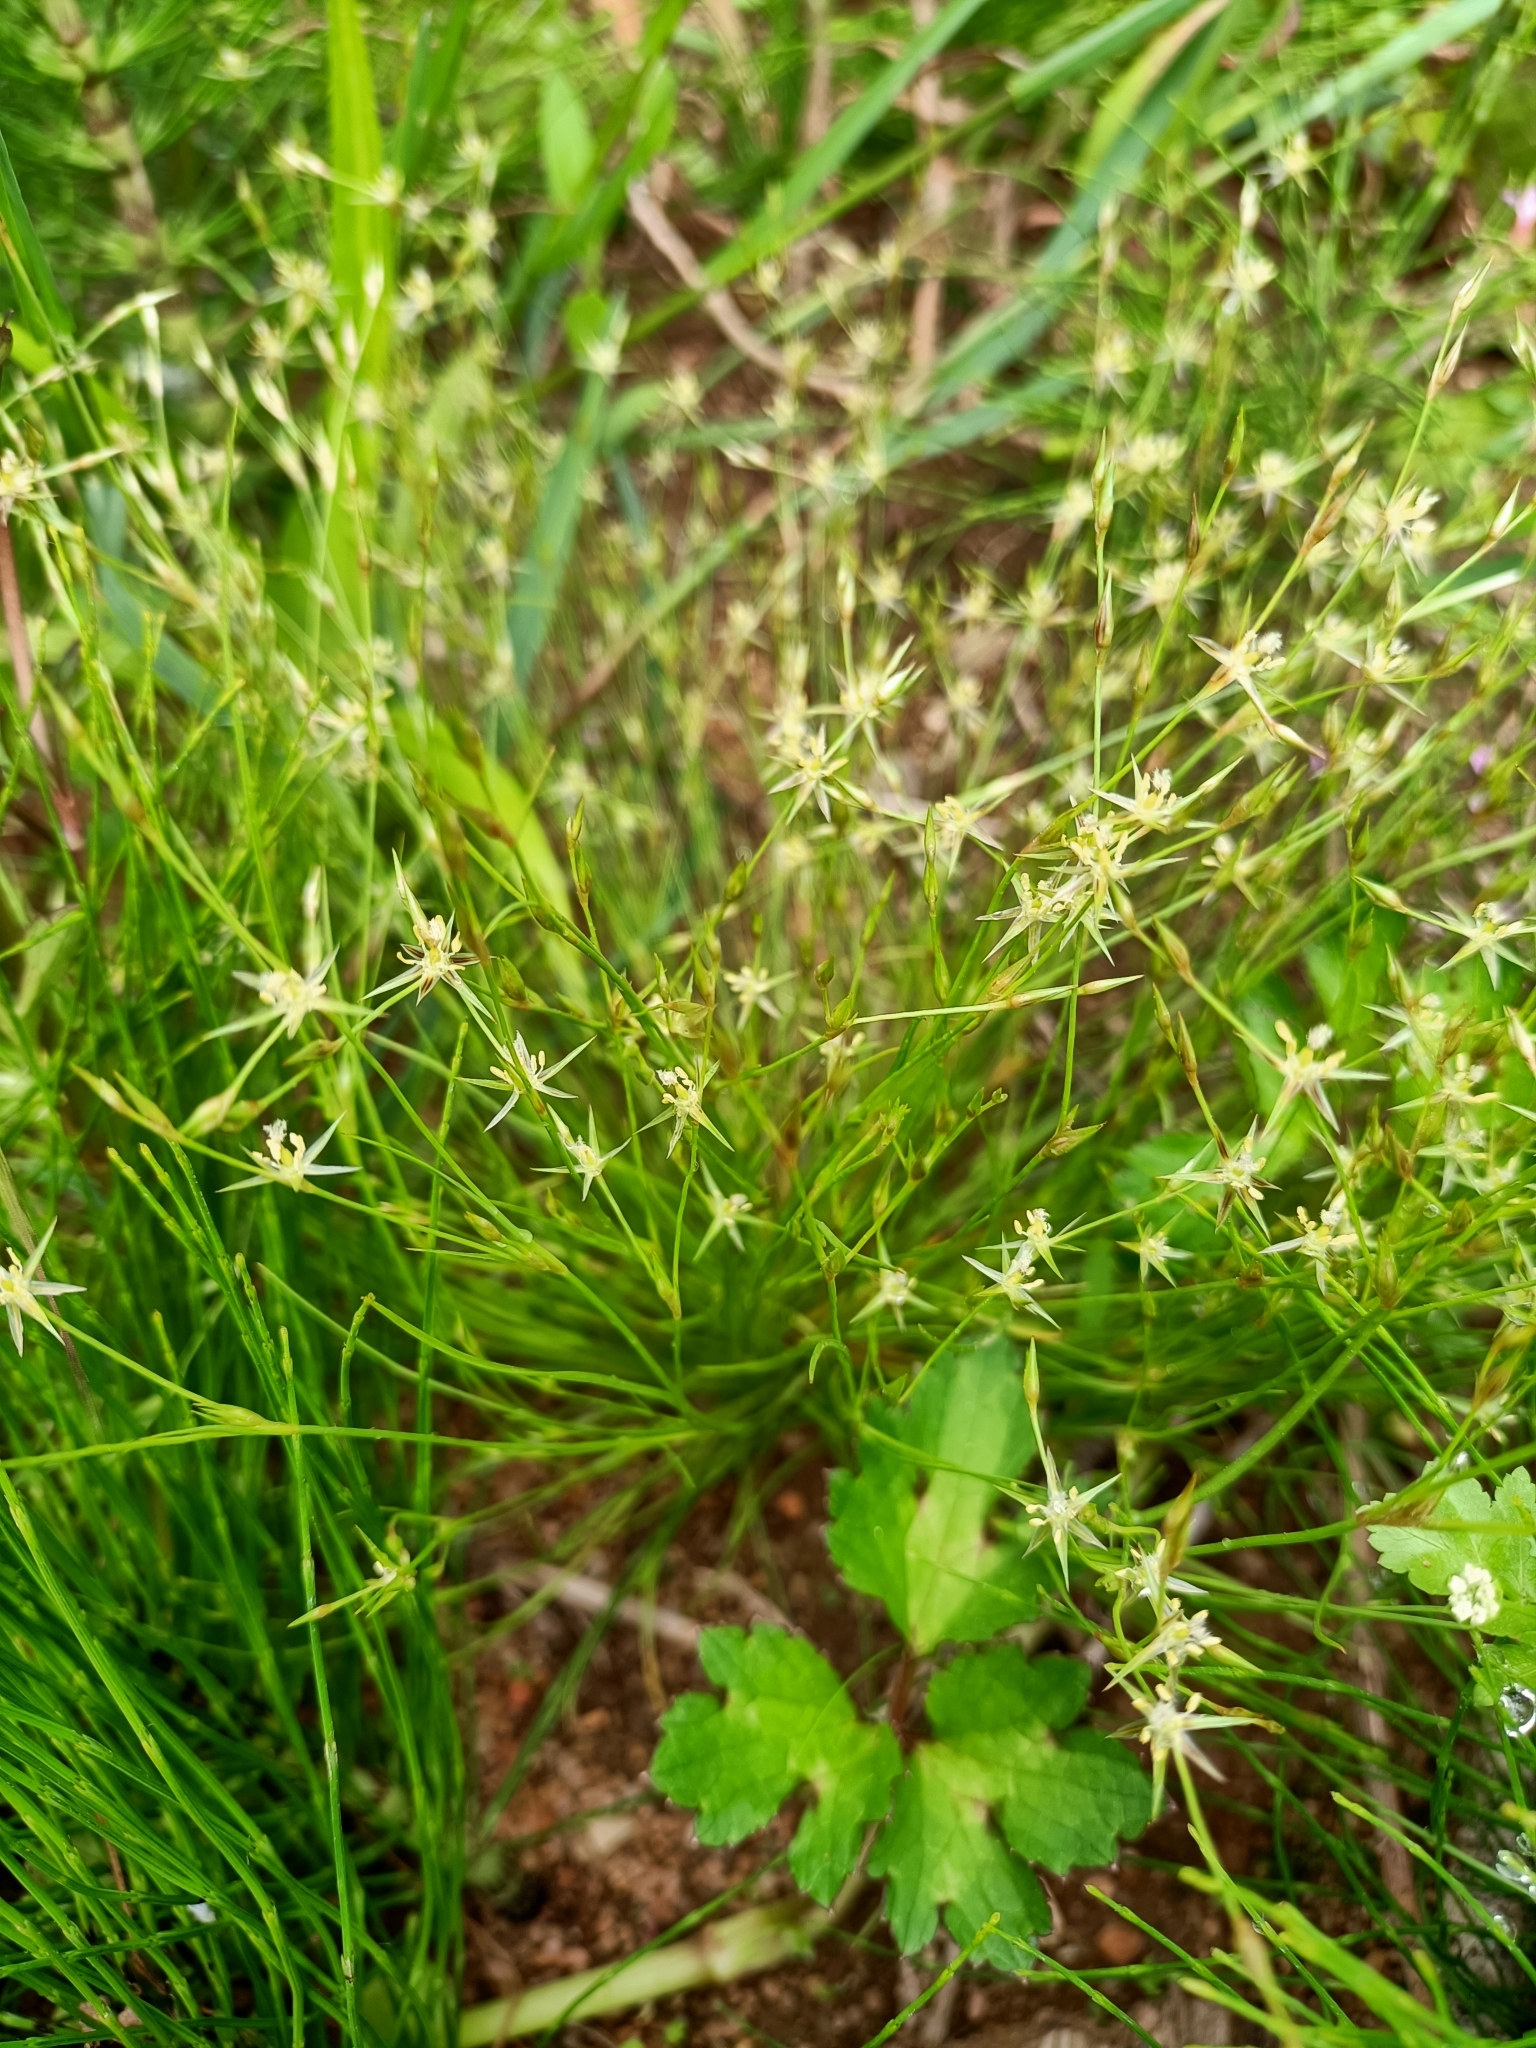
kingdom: Plantae
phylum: Tracheophyta
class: Liliopsida
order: Poales
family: Juncaceae
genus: Juncus
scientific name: Juncus bufonius
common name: Toad rush
